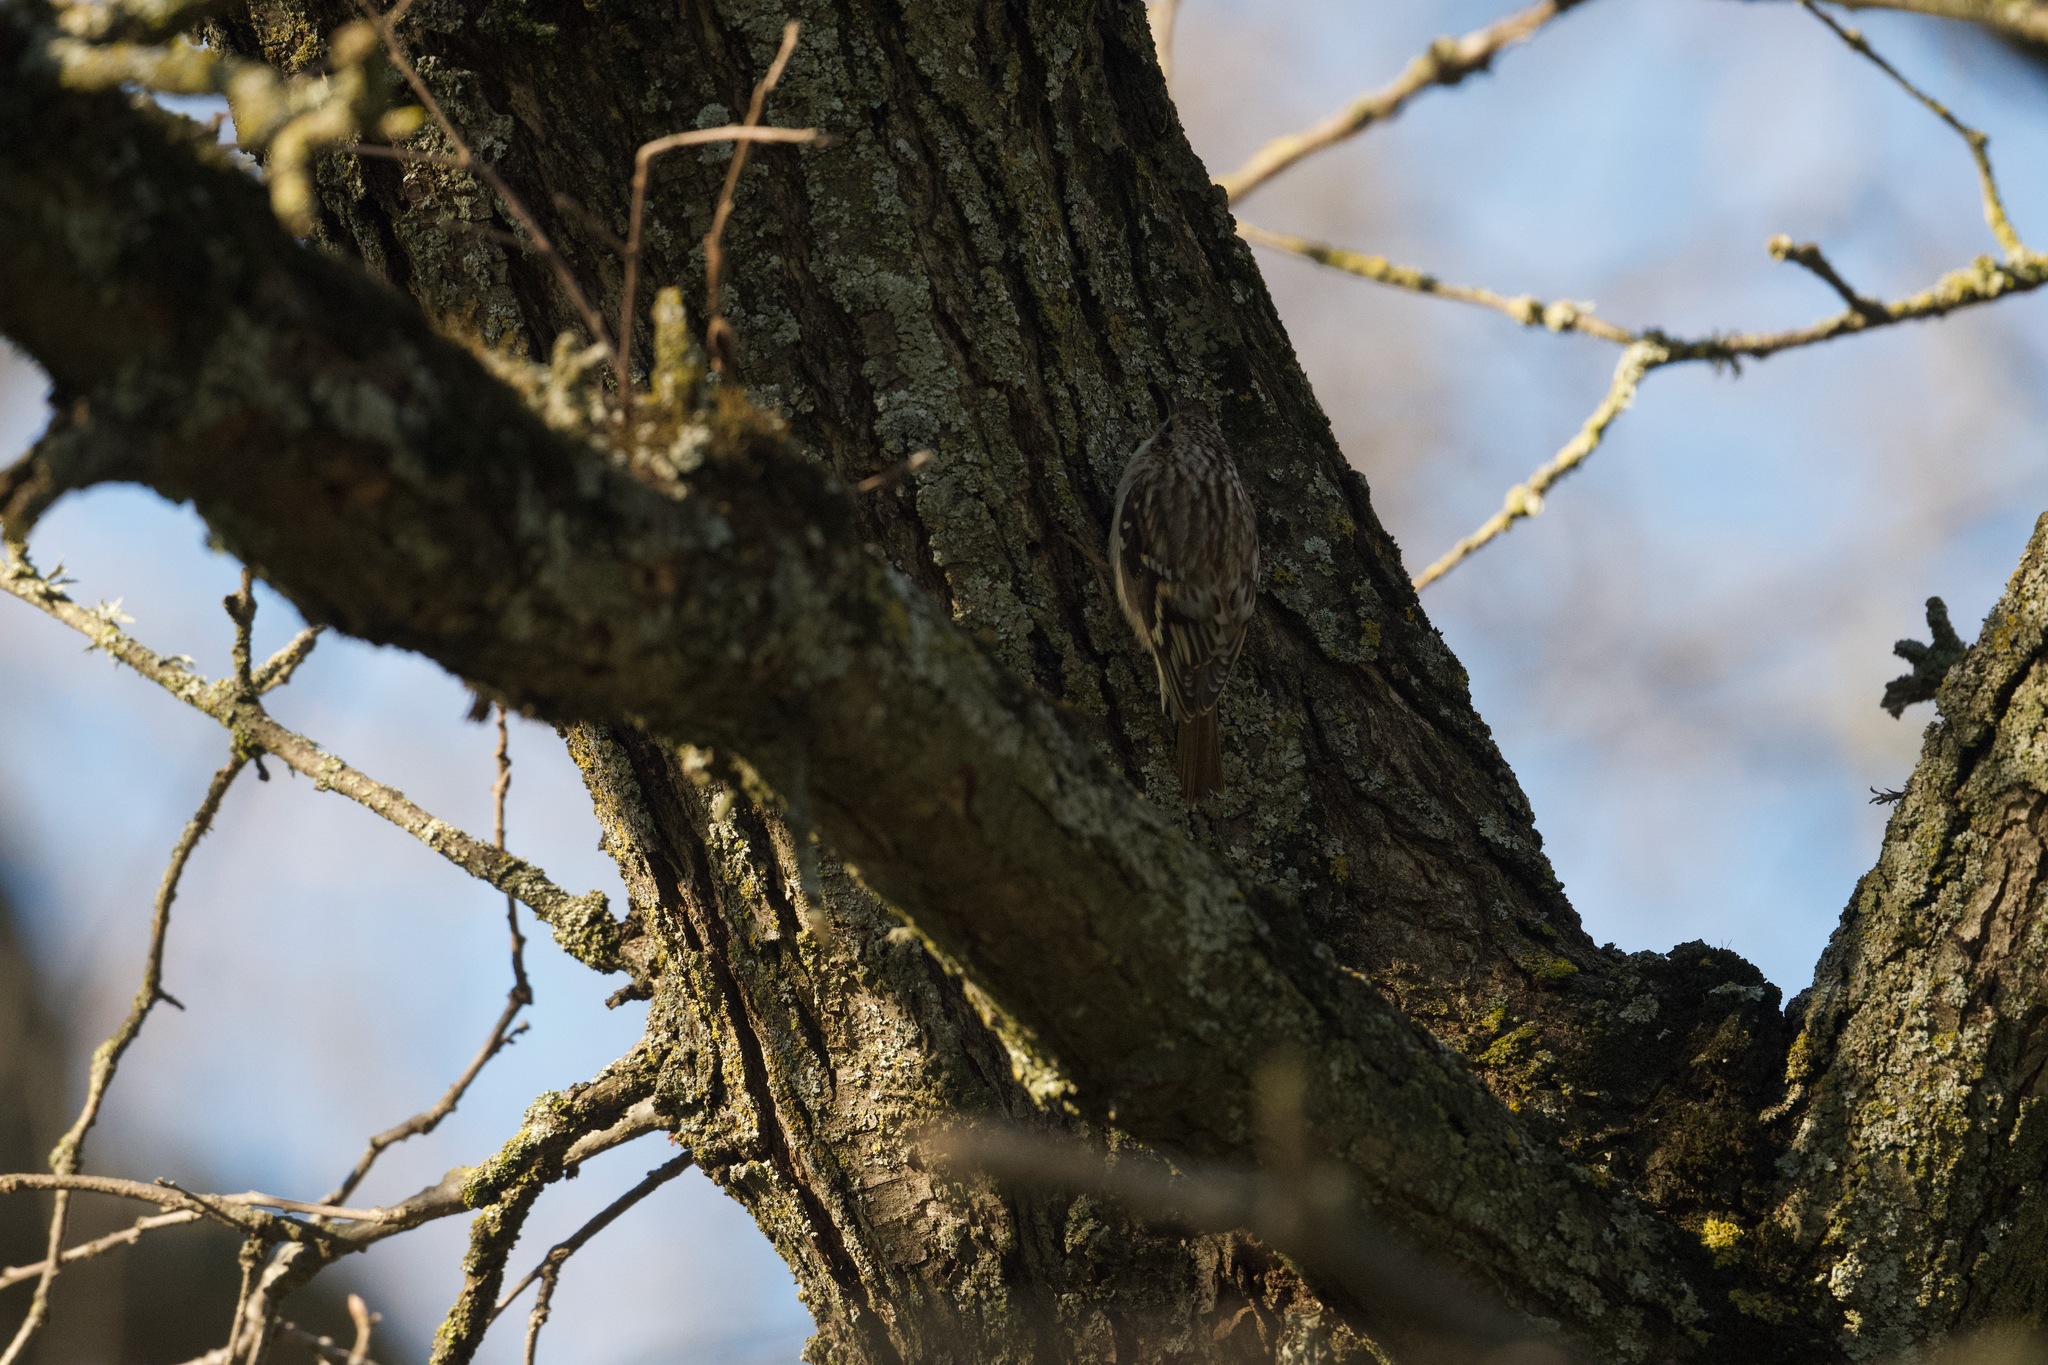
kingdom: Animalia
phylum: Chordata
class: Aves
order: Passeriformes
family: Certhiidae
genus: Certhia
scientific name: Certhia americana
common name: Brown creeper
